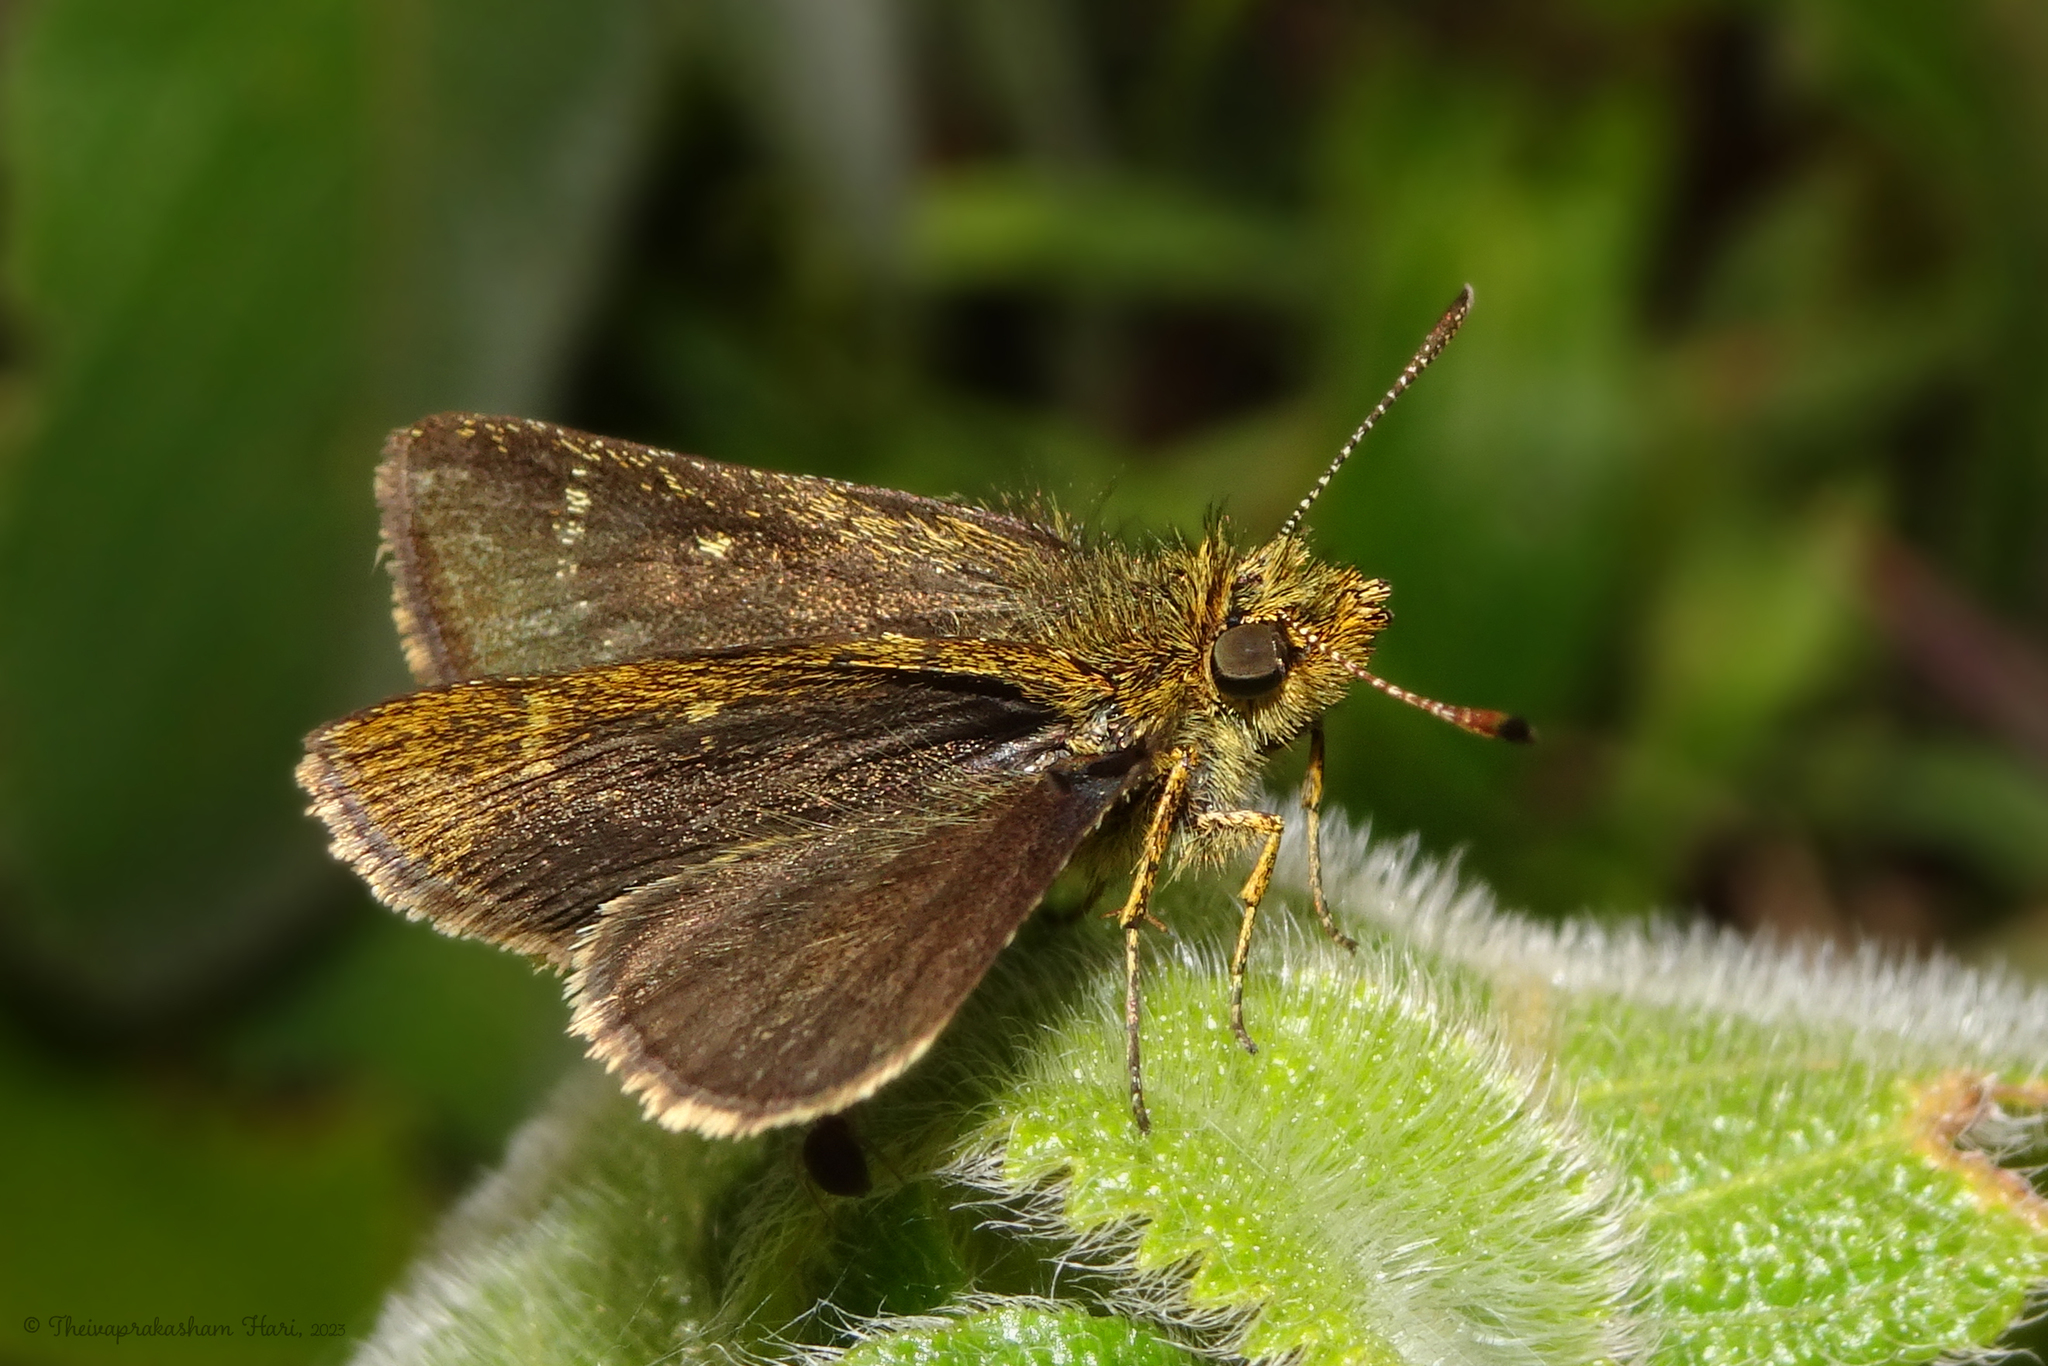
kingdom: Animalia
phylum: Arthropoda
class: Insecta
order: Lepidoptera
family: Hesperiidae
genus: Aeromachus
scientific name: Aeromachus dubius
